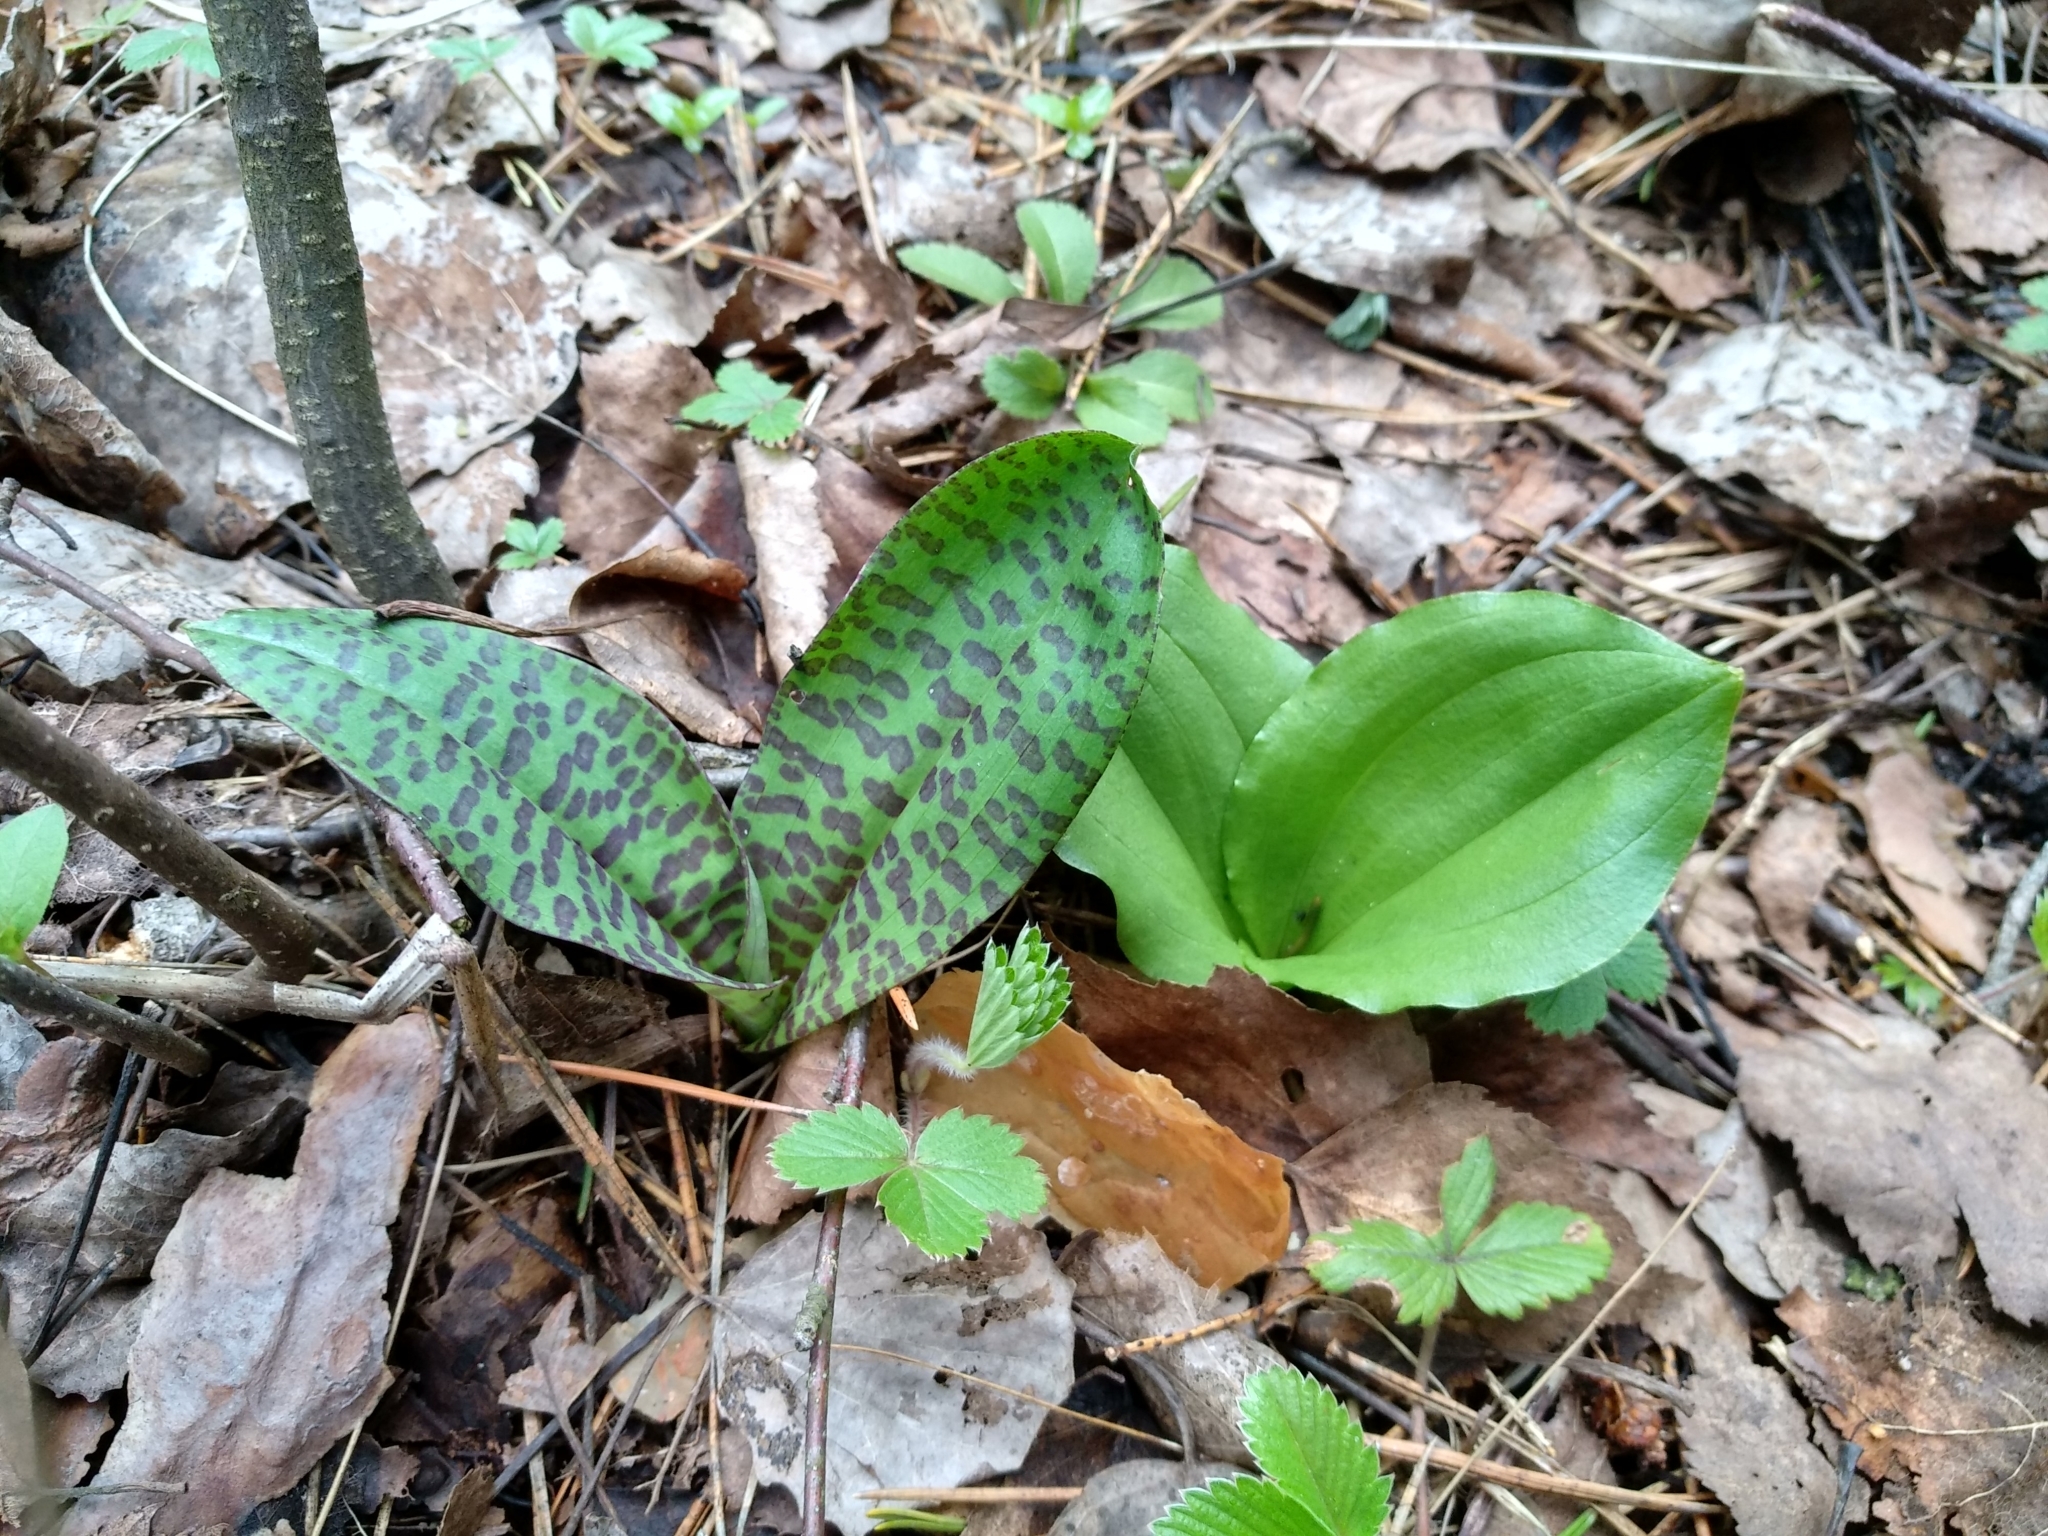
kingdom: Plantae
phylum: Tracheophyta
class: Liliopsida
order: Asparagales
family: Orchidaceae
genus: Neottia
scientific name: Neottia ovata
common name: Common twayblade
